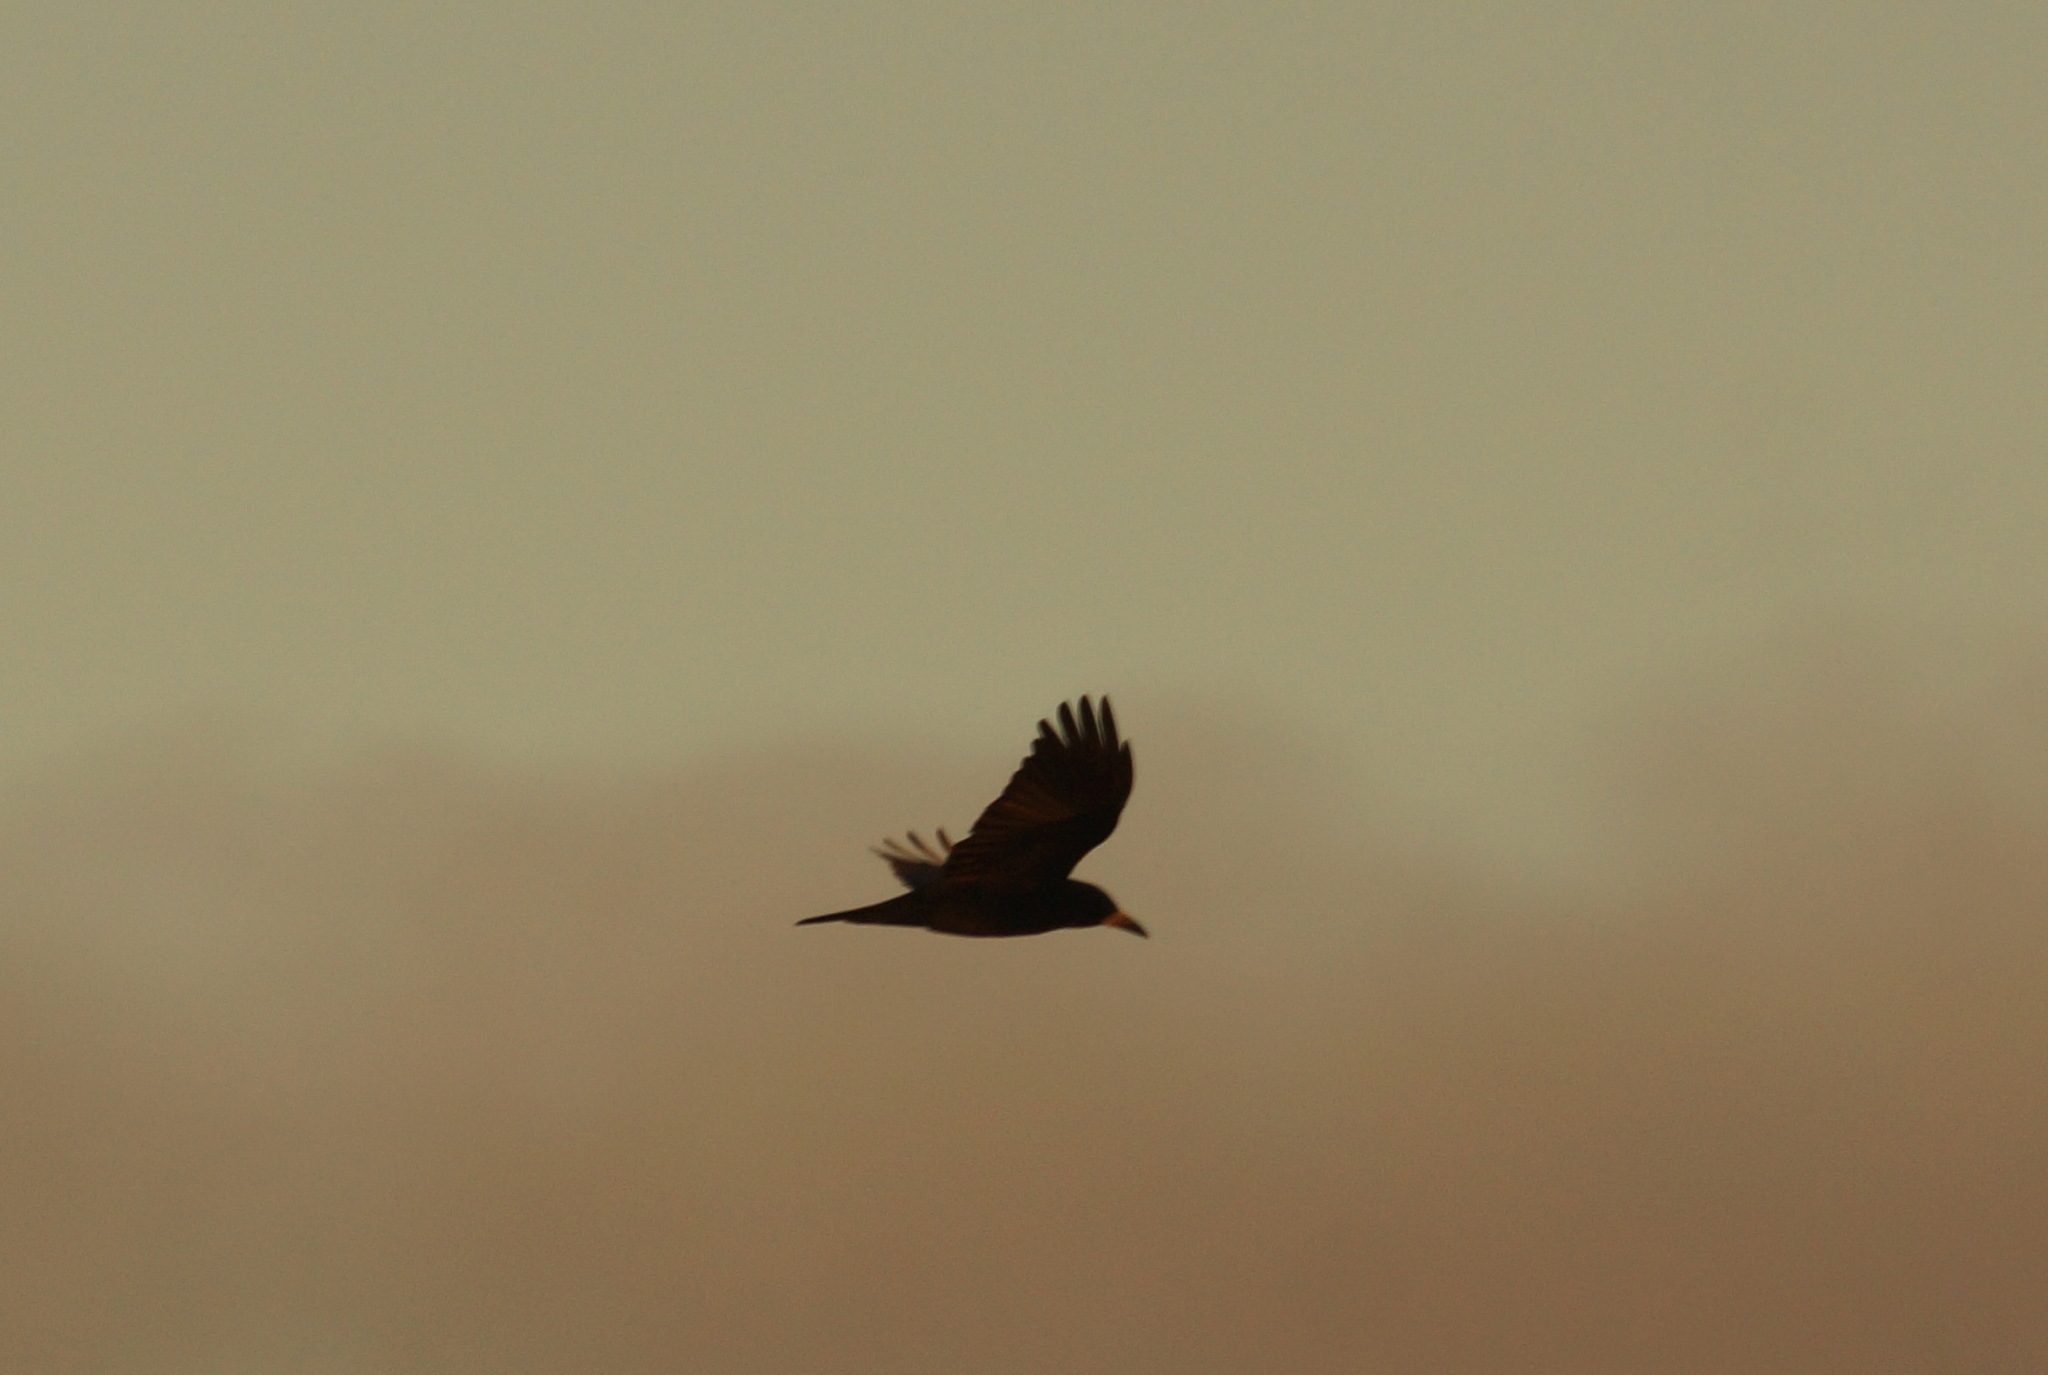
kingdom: Animalia
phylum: Chordata
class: Aves
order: Passeriformes
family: Corvidae
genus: Corvus
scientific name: Corvus frugilegus
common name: Rook
